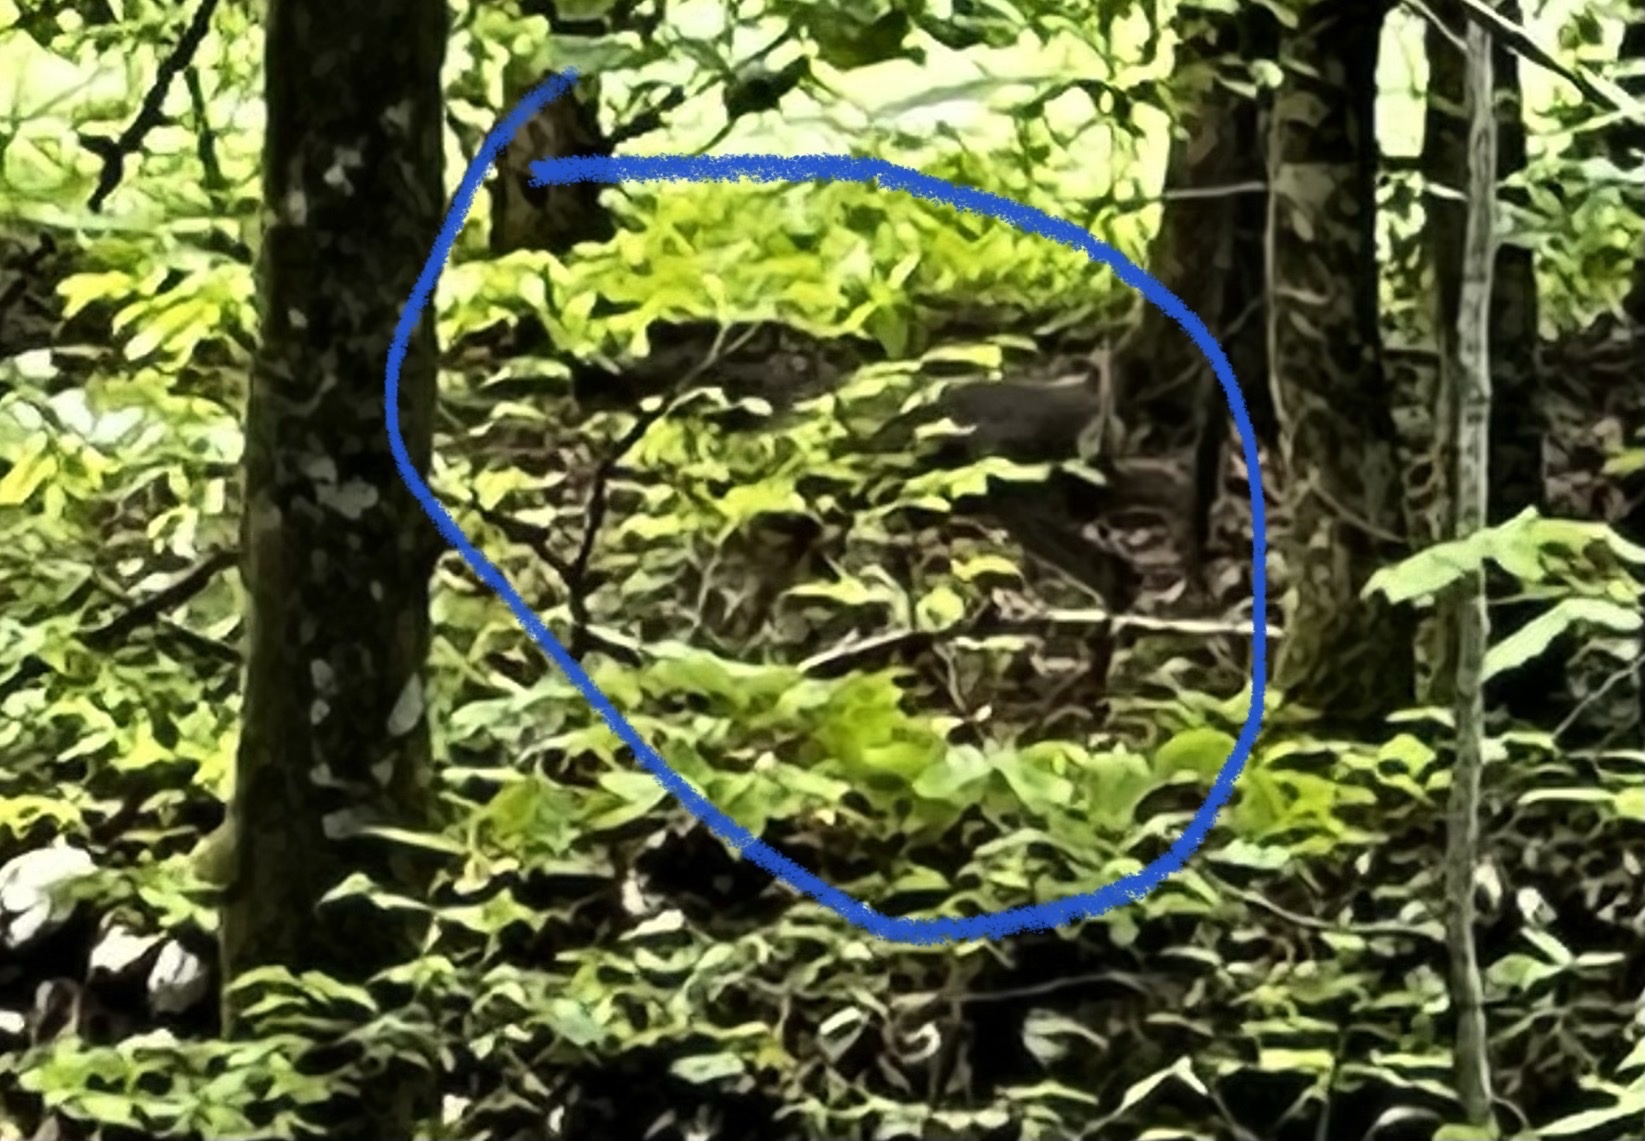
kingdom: Animalia
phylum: Chordata
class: Mammalia
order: Artiodactyla
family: Cervidae
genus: Capreolus
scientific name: Capreolus capreolus
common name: Western roe deer
